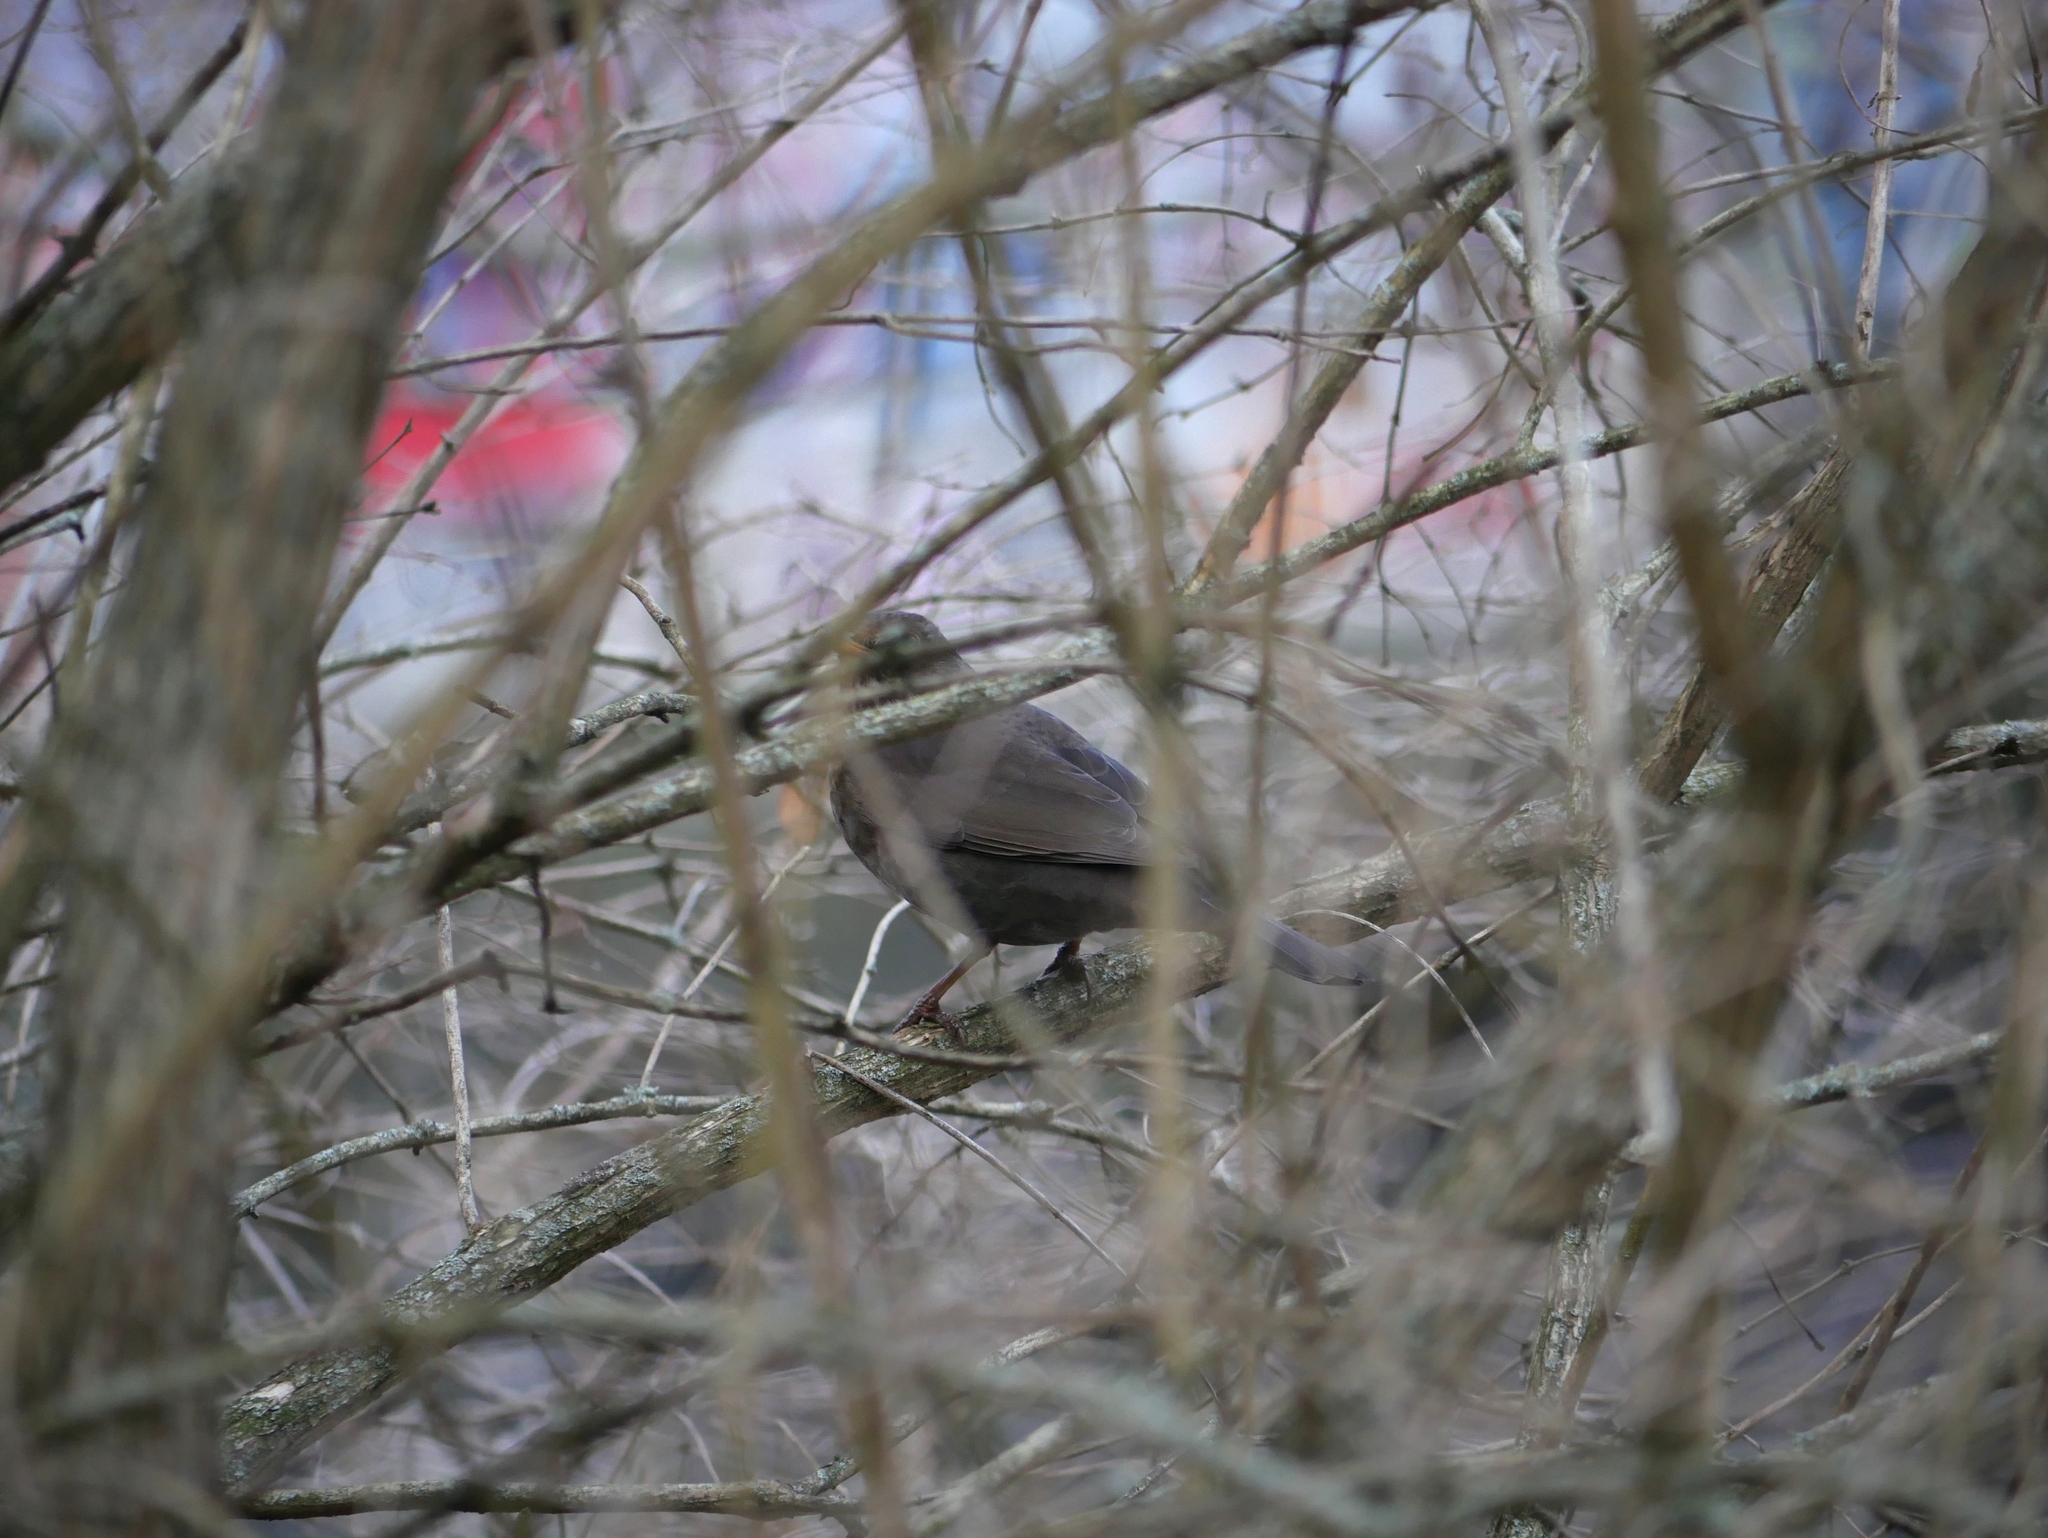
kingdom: Animalia
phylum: Chordata
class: Aves
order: Passeriformes
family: Turdidae
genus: Turdus
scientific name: Turdus merula
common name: Common blackbird
